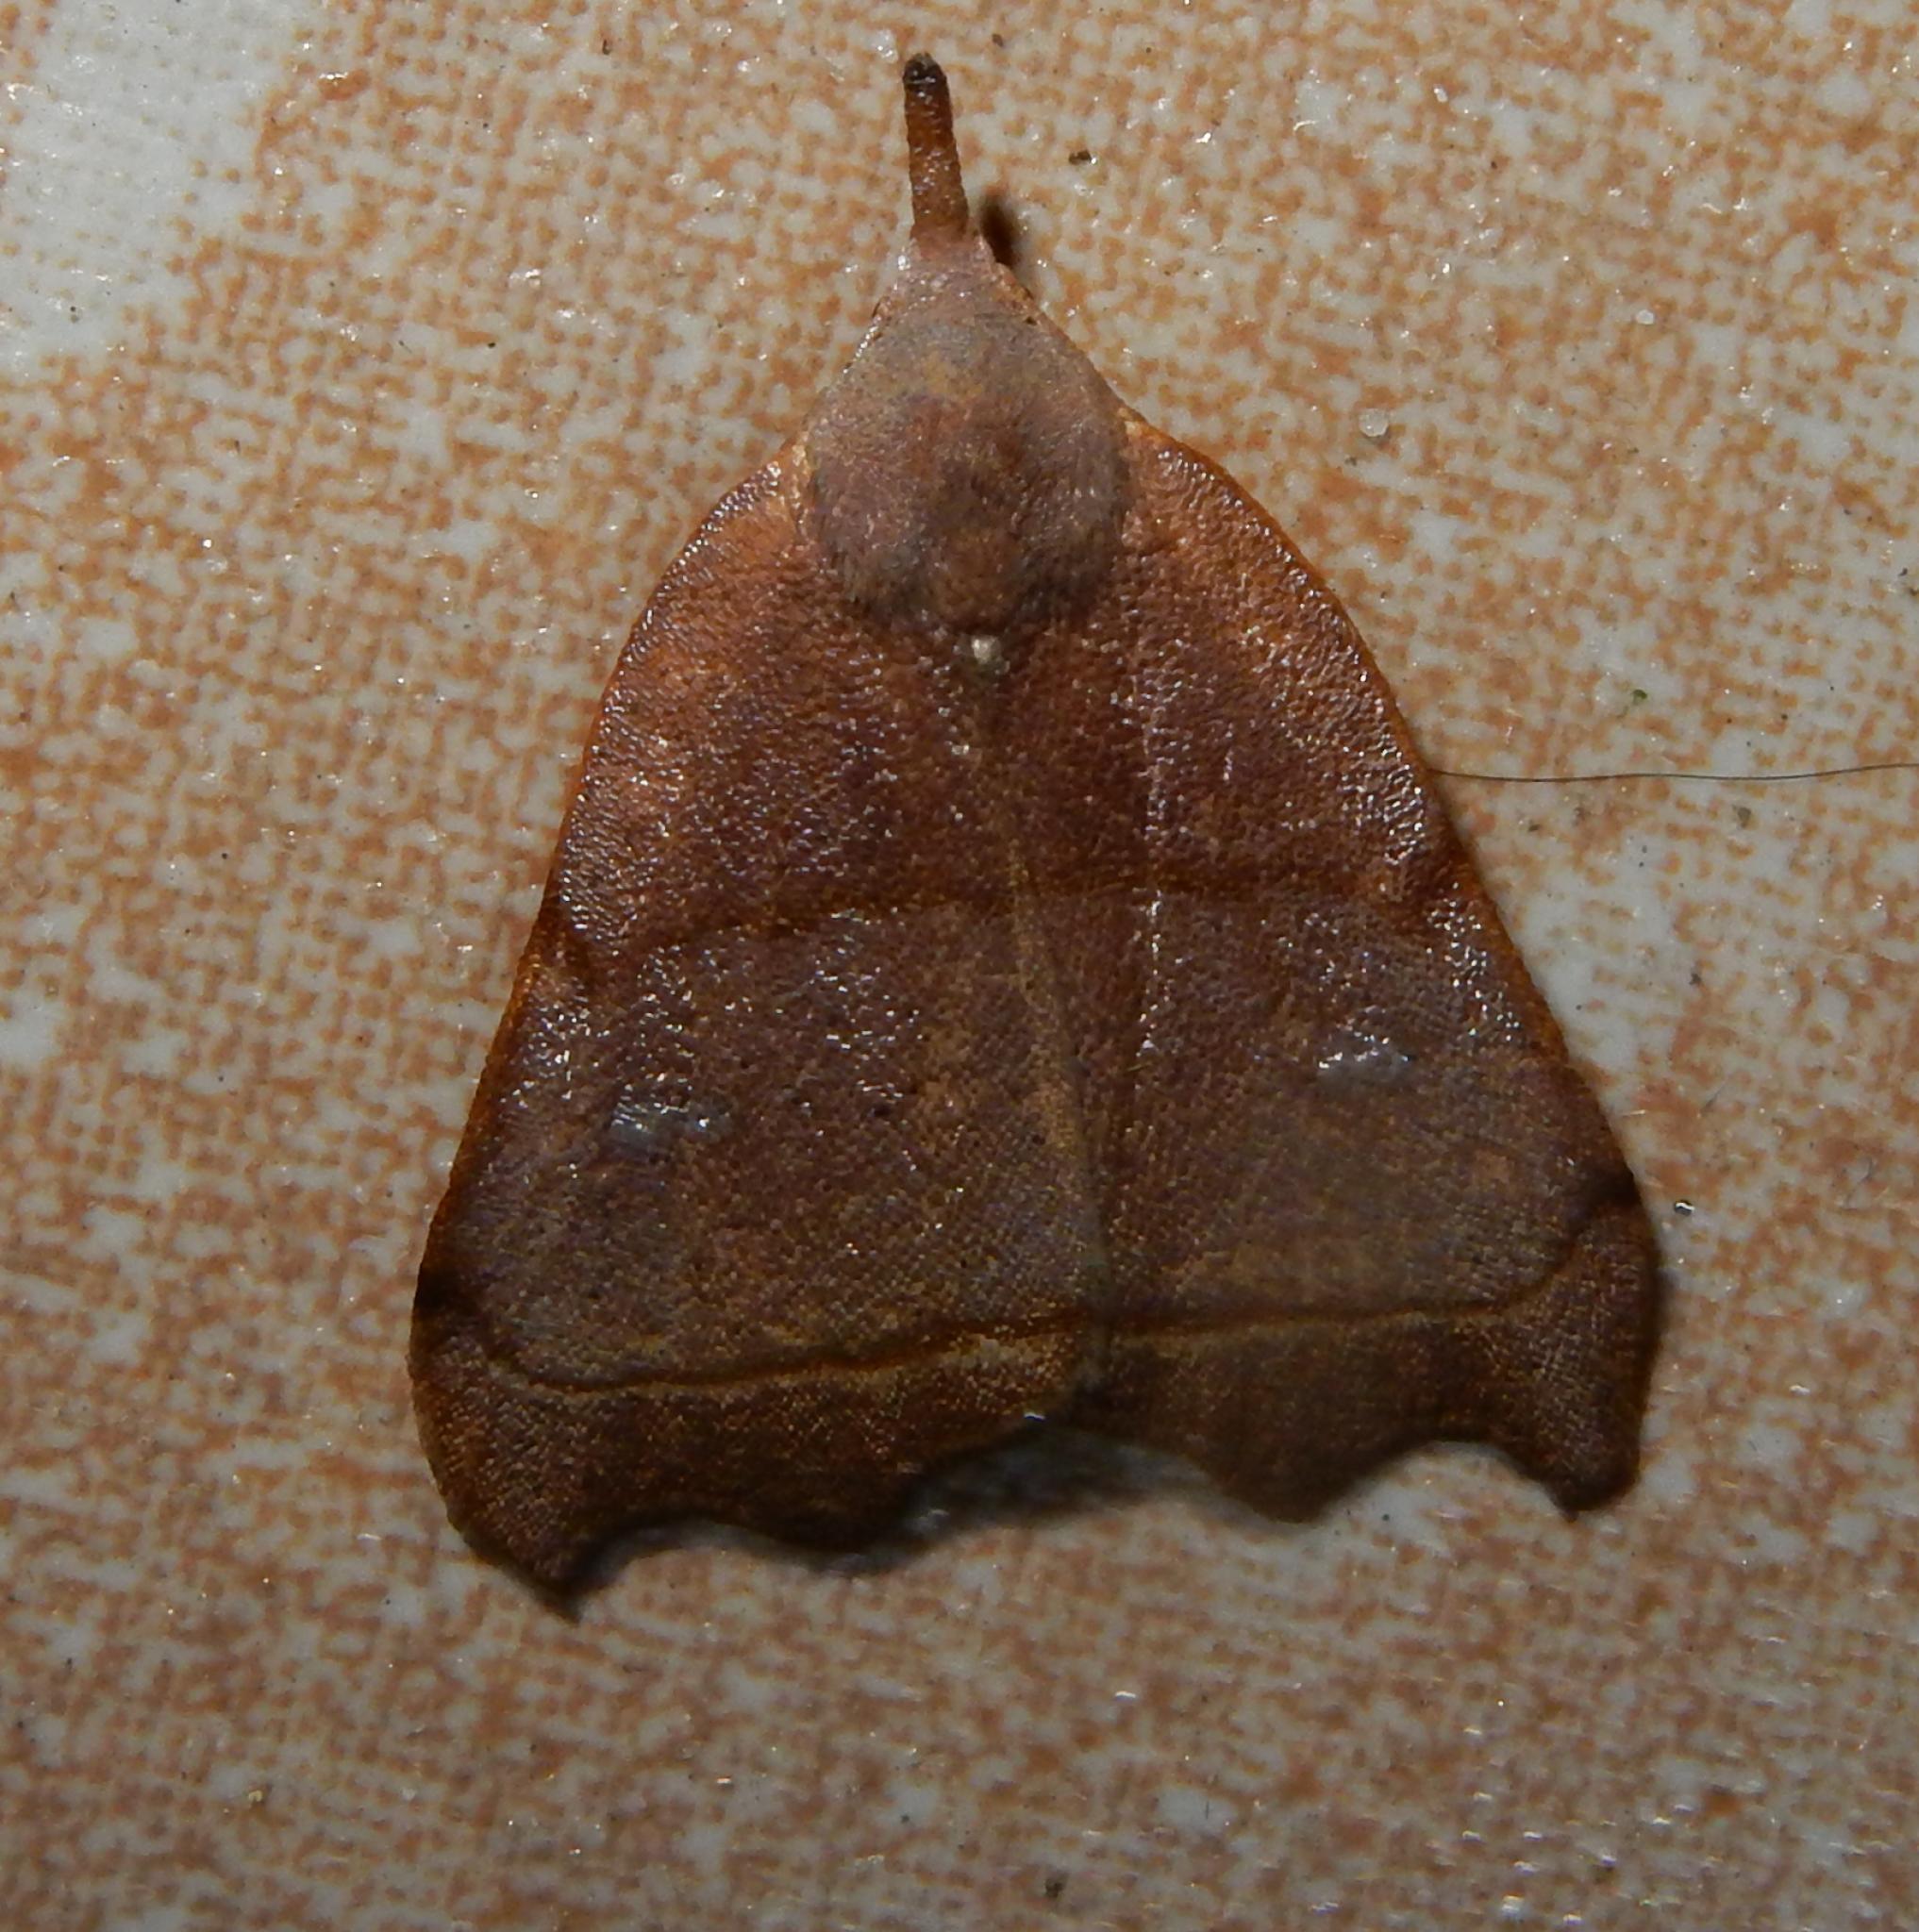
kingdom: Animalia
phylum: Arthropoda
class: Insecta
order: Lepidoptera
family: Erebidae
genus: Hondryches
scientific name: Hondryches phalaeniformis
